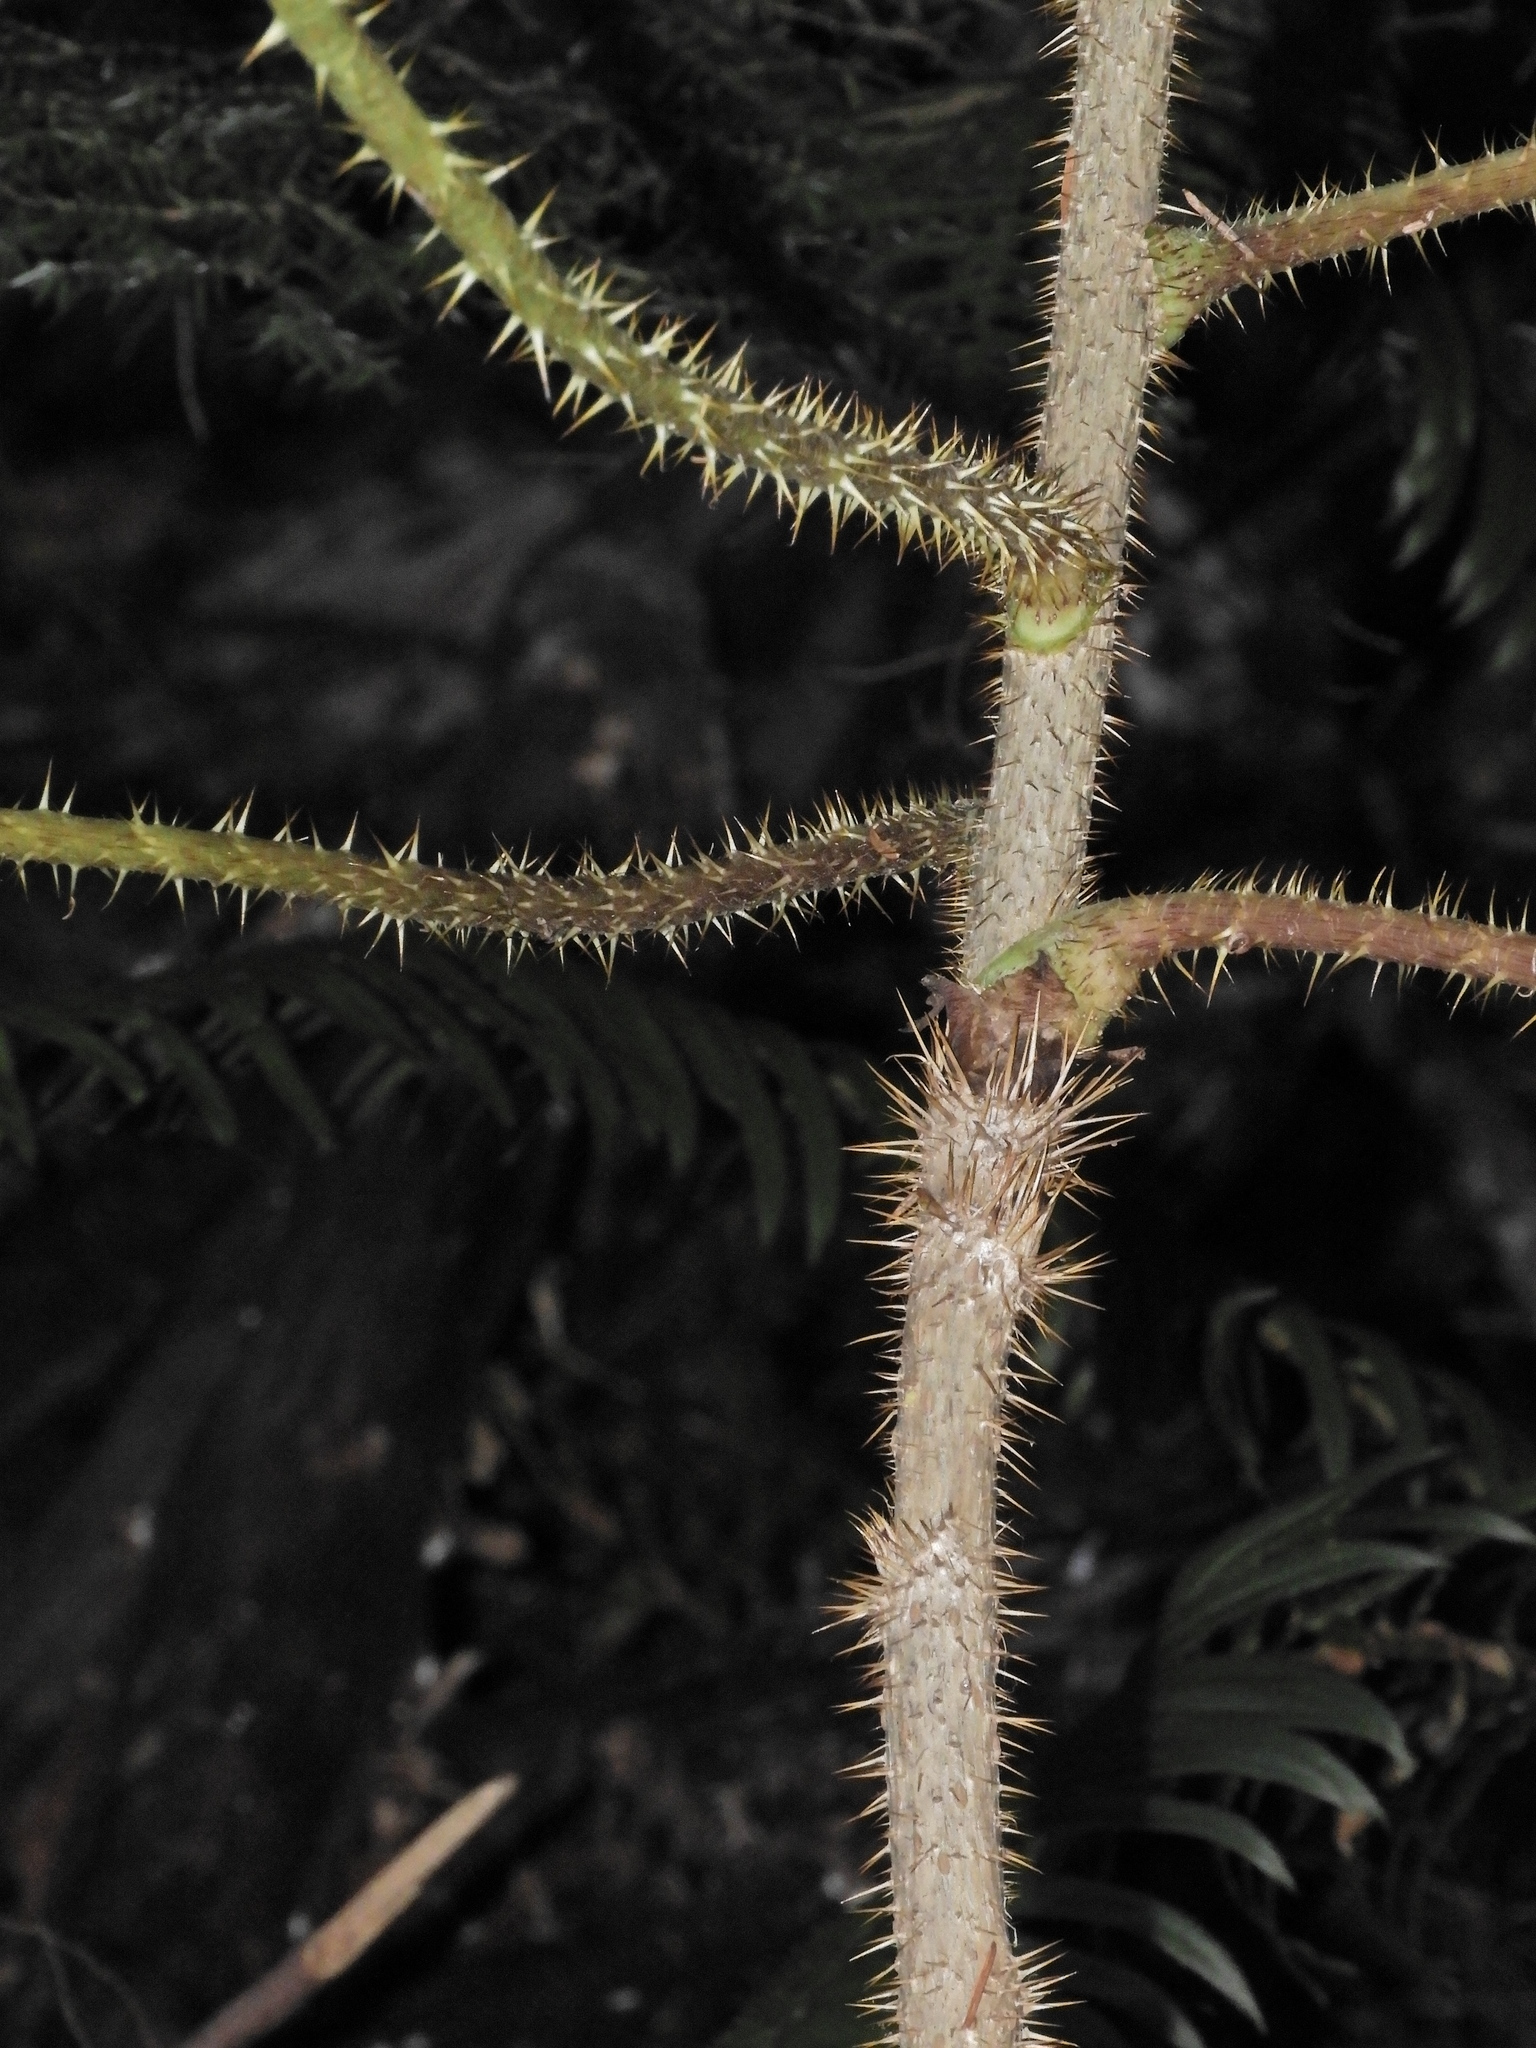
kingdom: Plantae
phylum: Tracheophyta
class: Magnoliopsida
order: Apiales
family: Araliaceae
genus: Oplopanax
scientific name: Oplopanax horridus
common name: Devil's walking-stick
